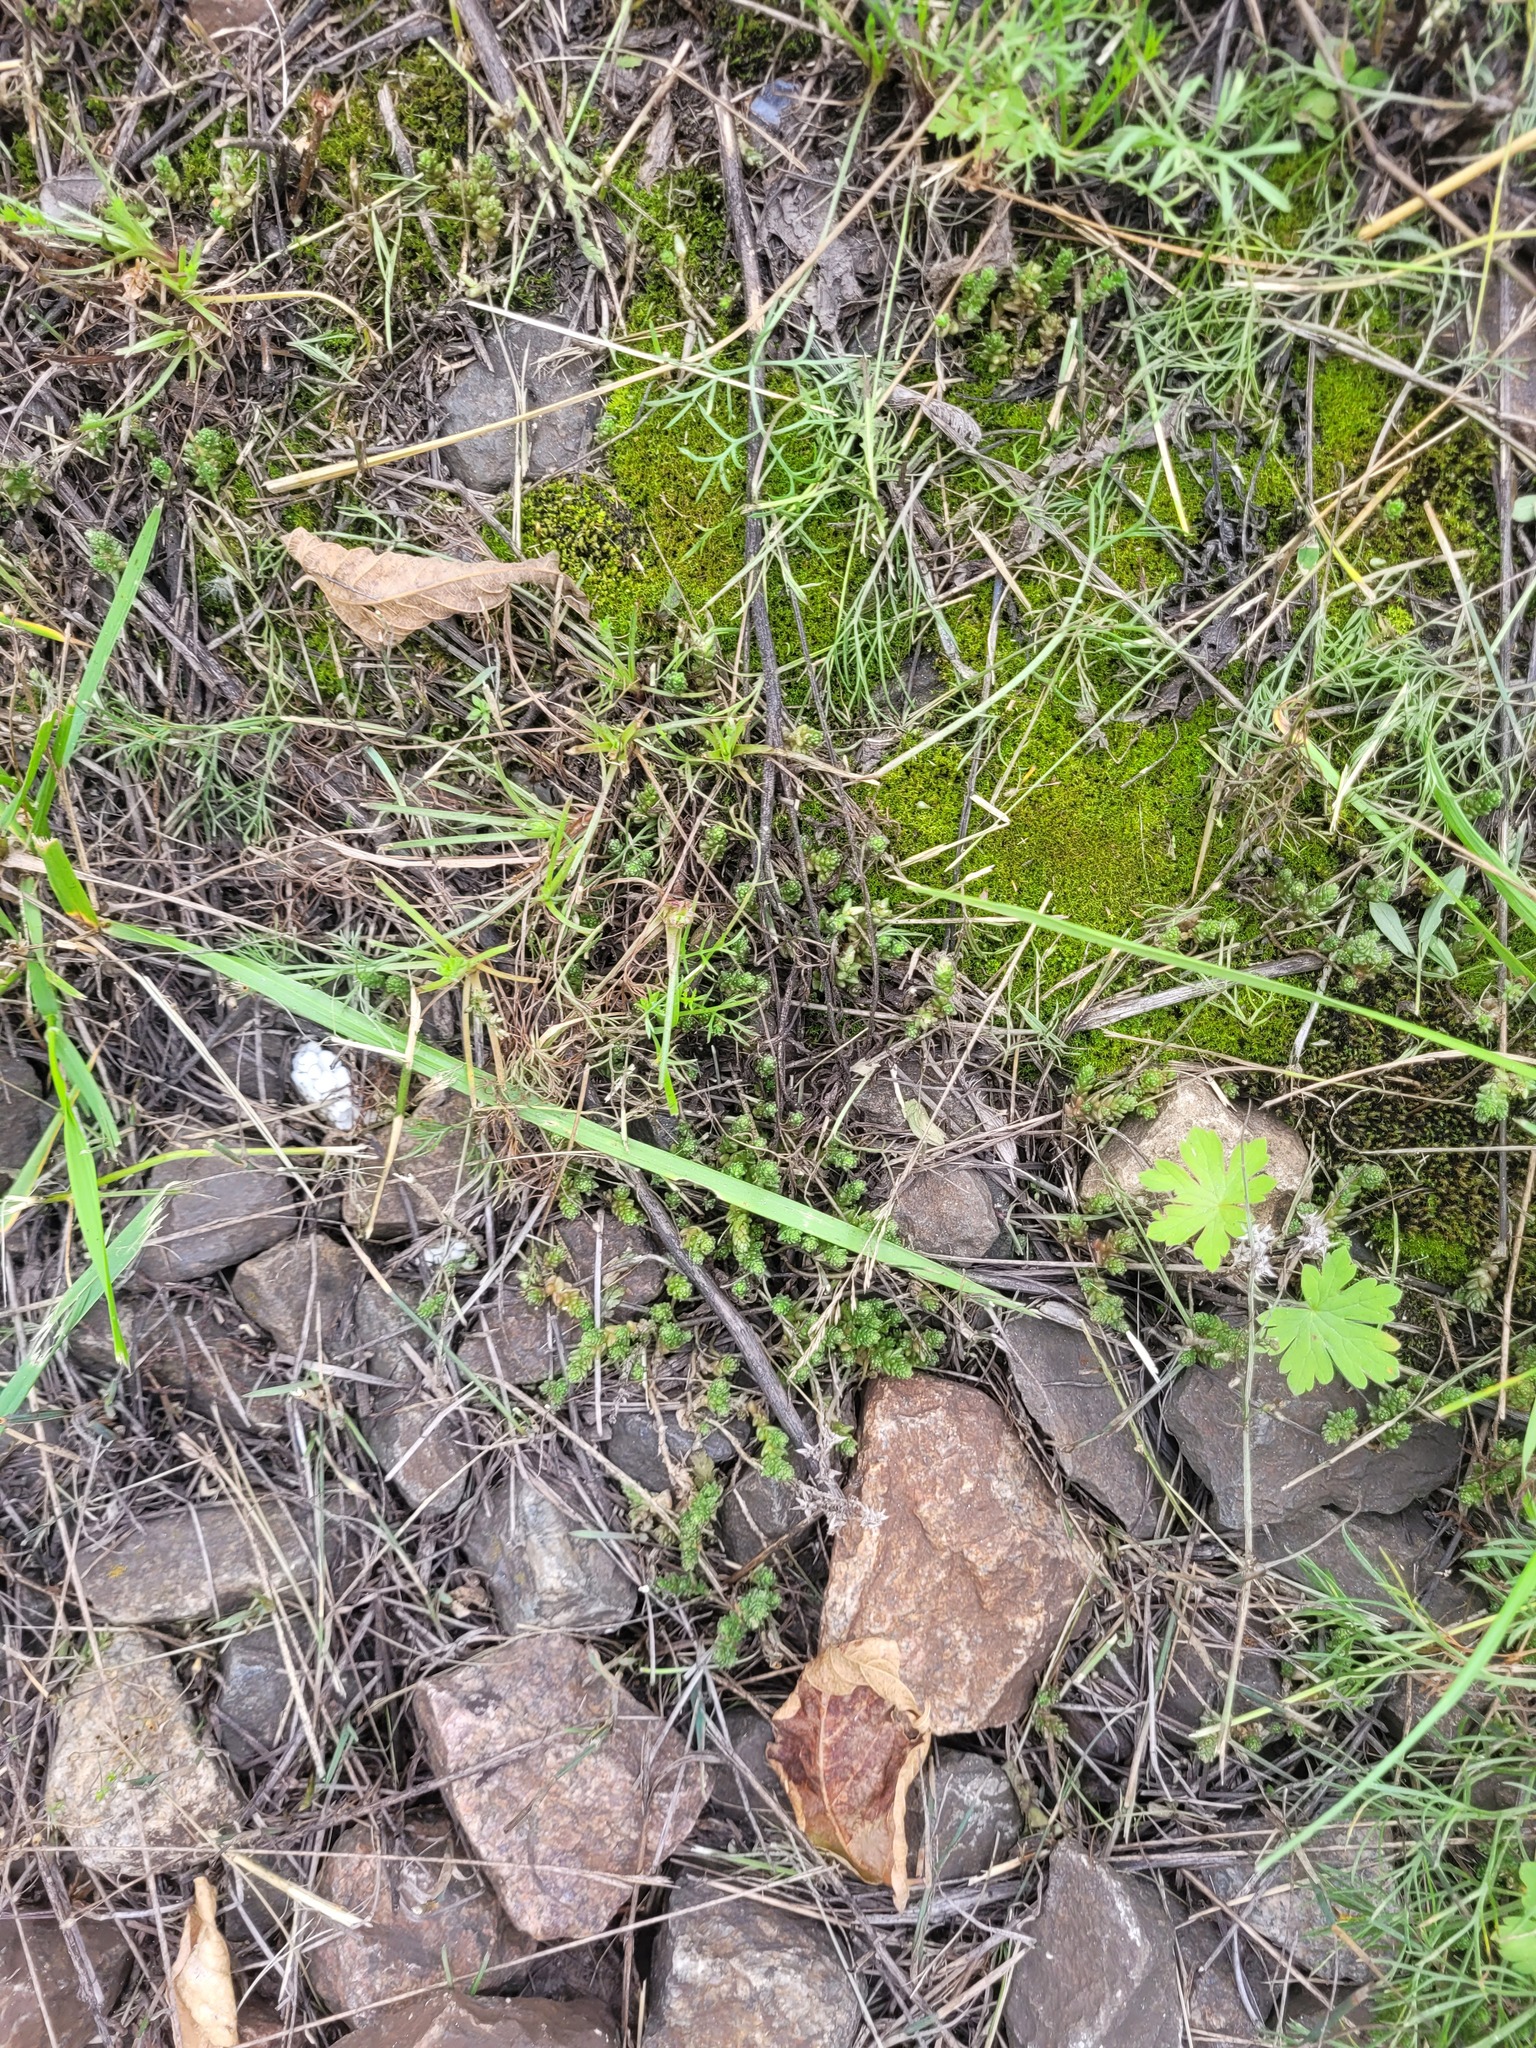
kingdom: Plantae
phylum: Tracheophyta
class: Magnoliopsida
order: Saxifragales
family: Crassulaceae
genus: Sedum
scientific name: Sedum acre
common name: Biting stonecrop
